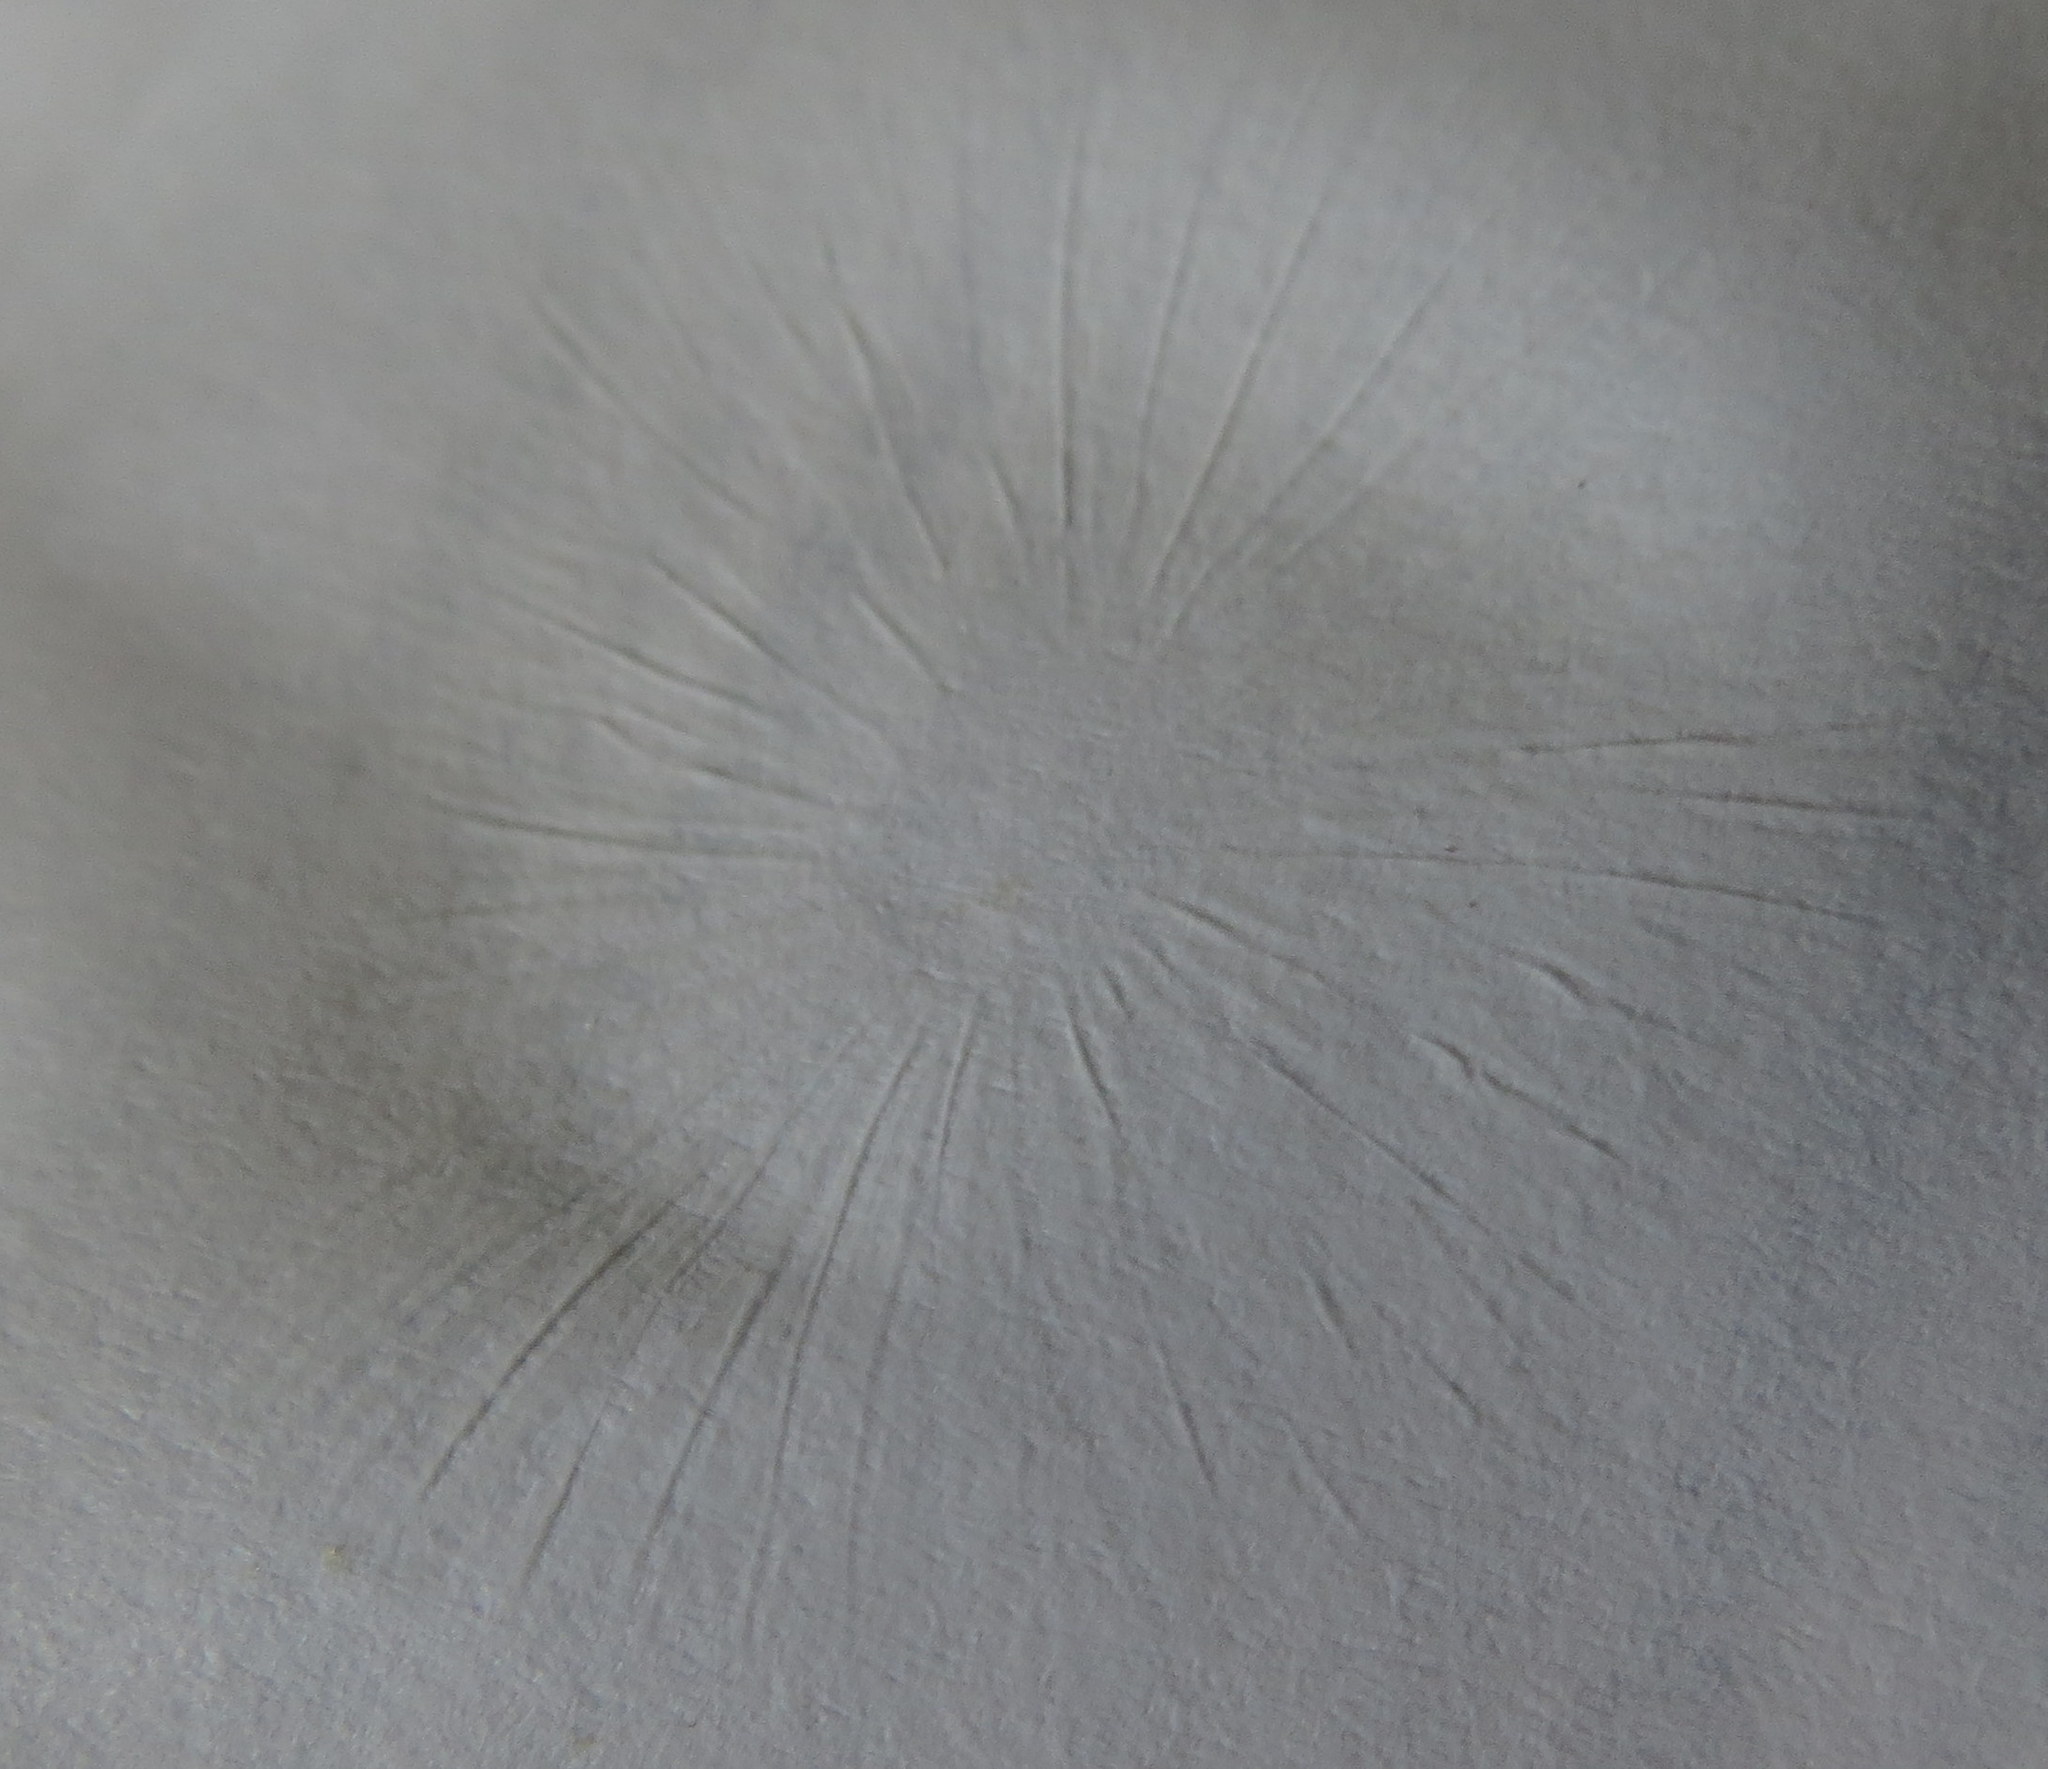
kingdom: Fungi
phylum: Basidiomycota
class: Agaricomycetes
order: Agaricales
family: Marasmiaceae
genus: Marasmius
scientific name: Marasmius oreades
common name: Fairy ring champignon
